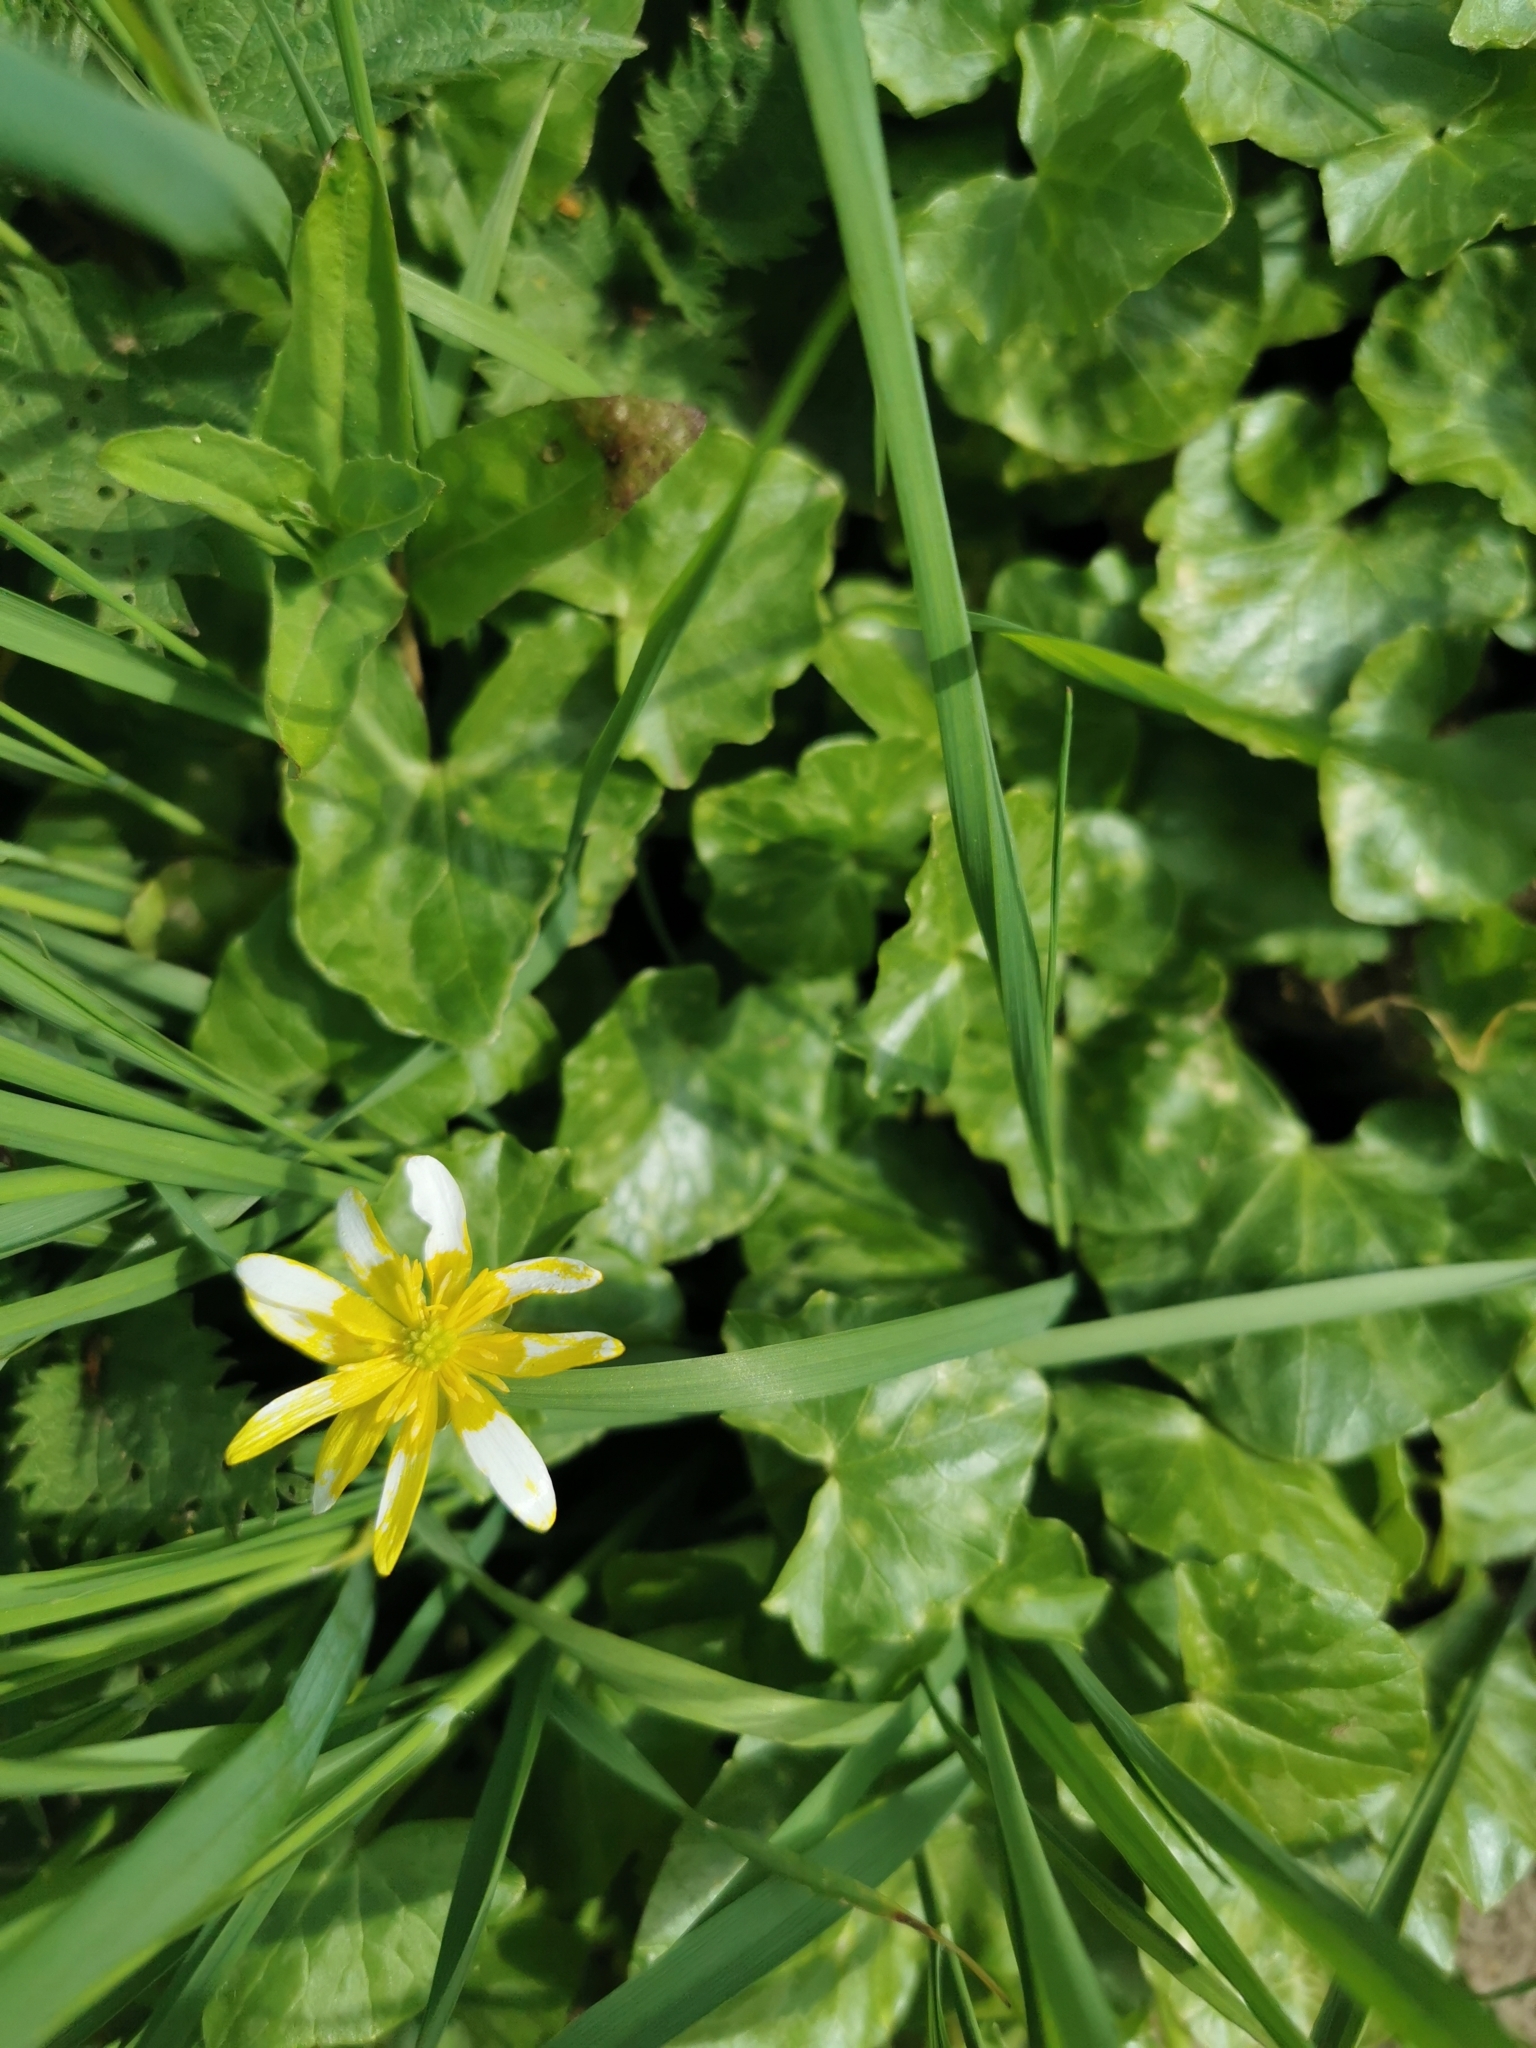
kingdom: Plantae
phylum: Tracheophyta
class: Magnoliopsida
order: Ranunculales
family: Ranunculaceae
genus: Ficaria
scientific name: Ficaria verna
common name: Lesser celandine
